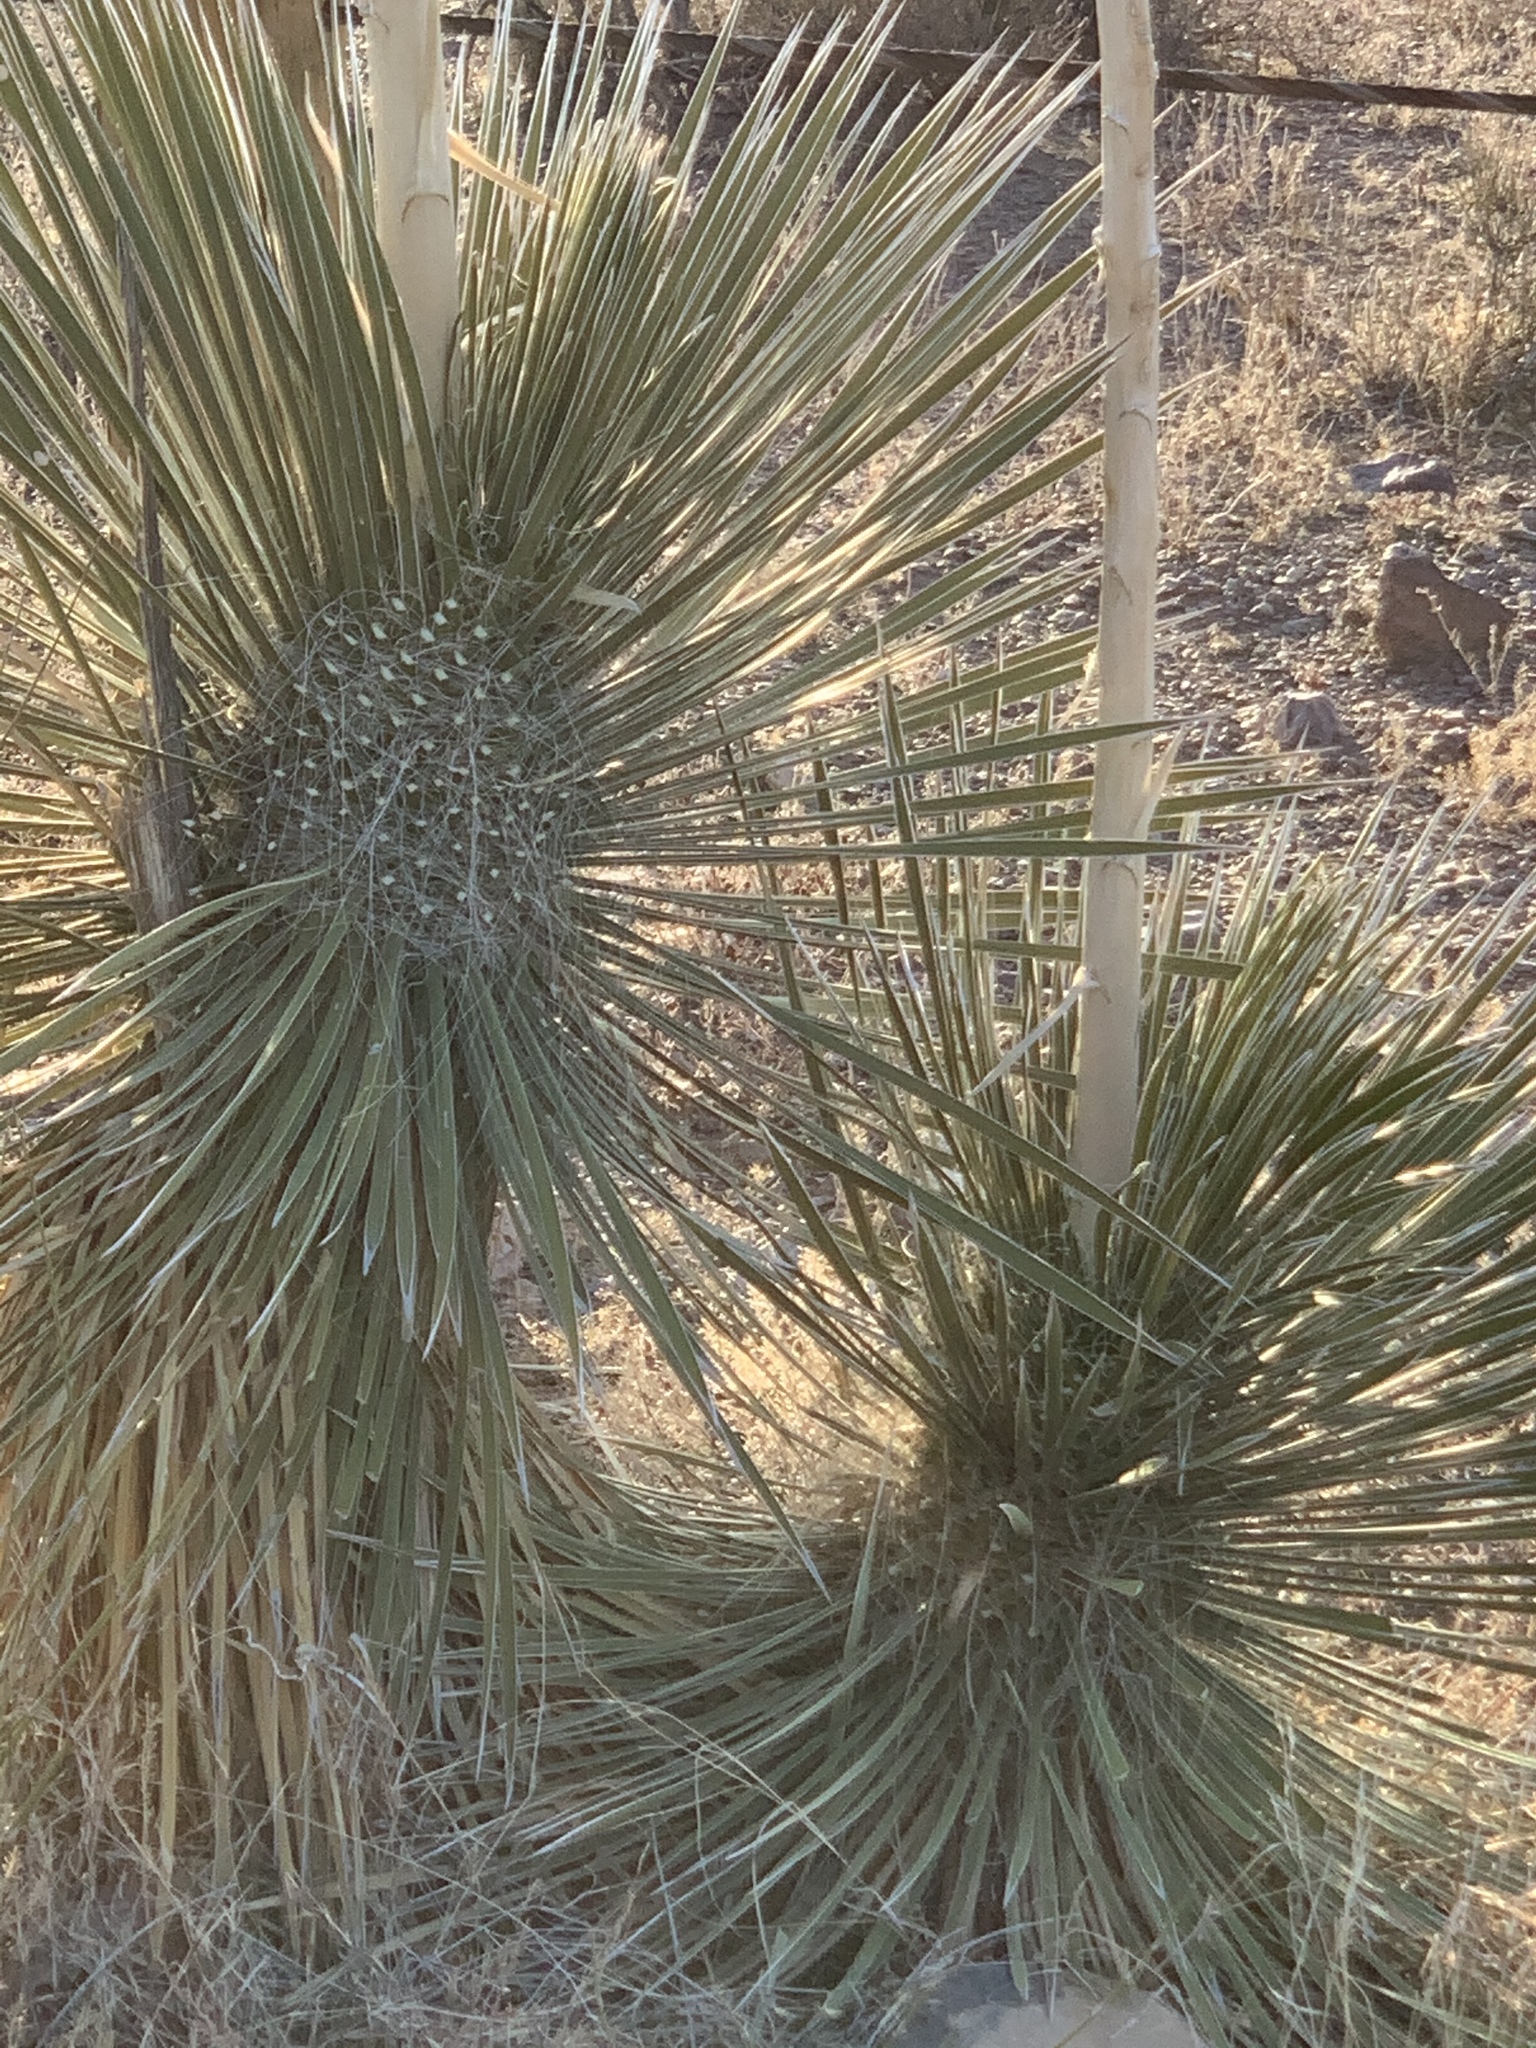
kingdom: Plantae
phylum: Tracheophyta
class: Liliopsida
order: Asparagales
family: Asparagaceae
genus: Yucca
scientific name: Yucca elata
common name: Palmella
